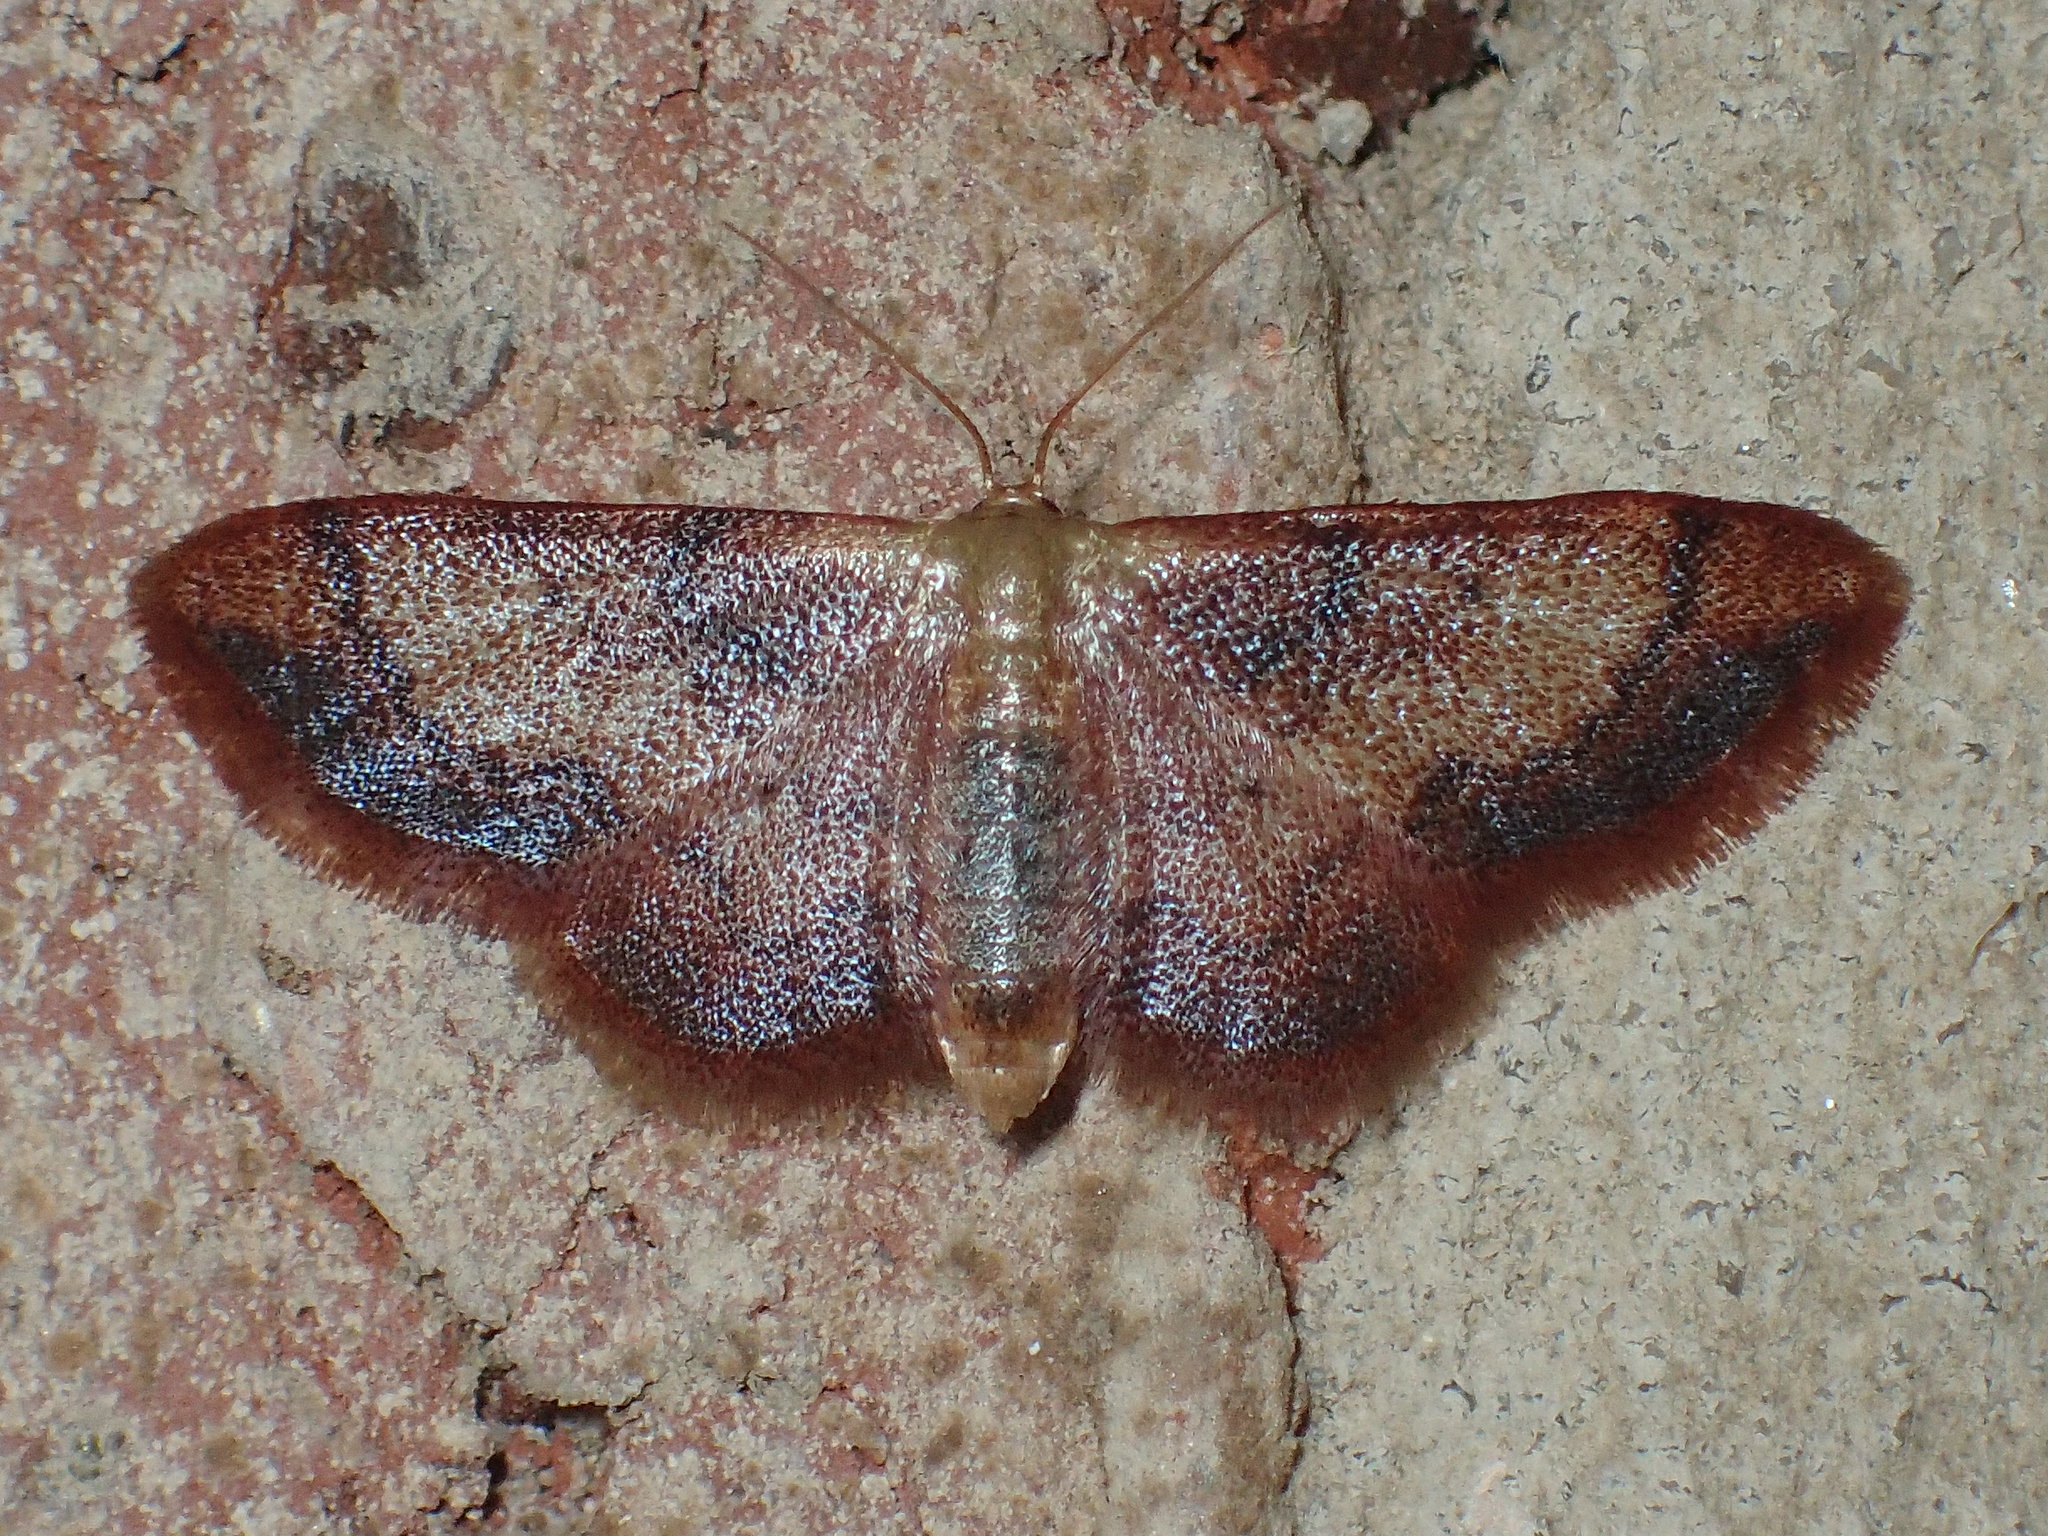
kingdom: Animalia
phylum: Arthropoda
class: Insecta
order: Lepidoptera
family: Geometridae
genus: Idaea
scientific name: Idaea demissaria
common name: Red-bordered wave
